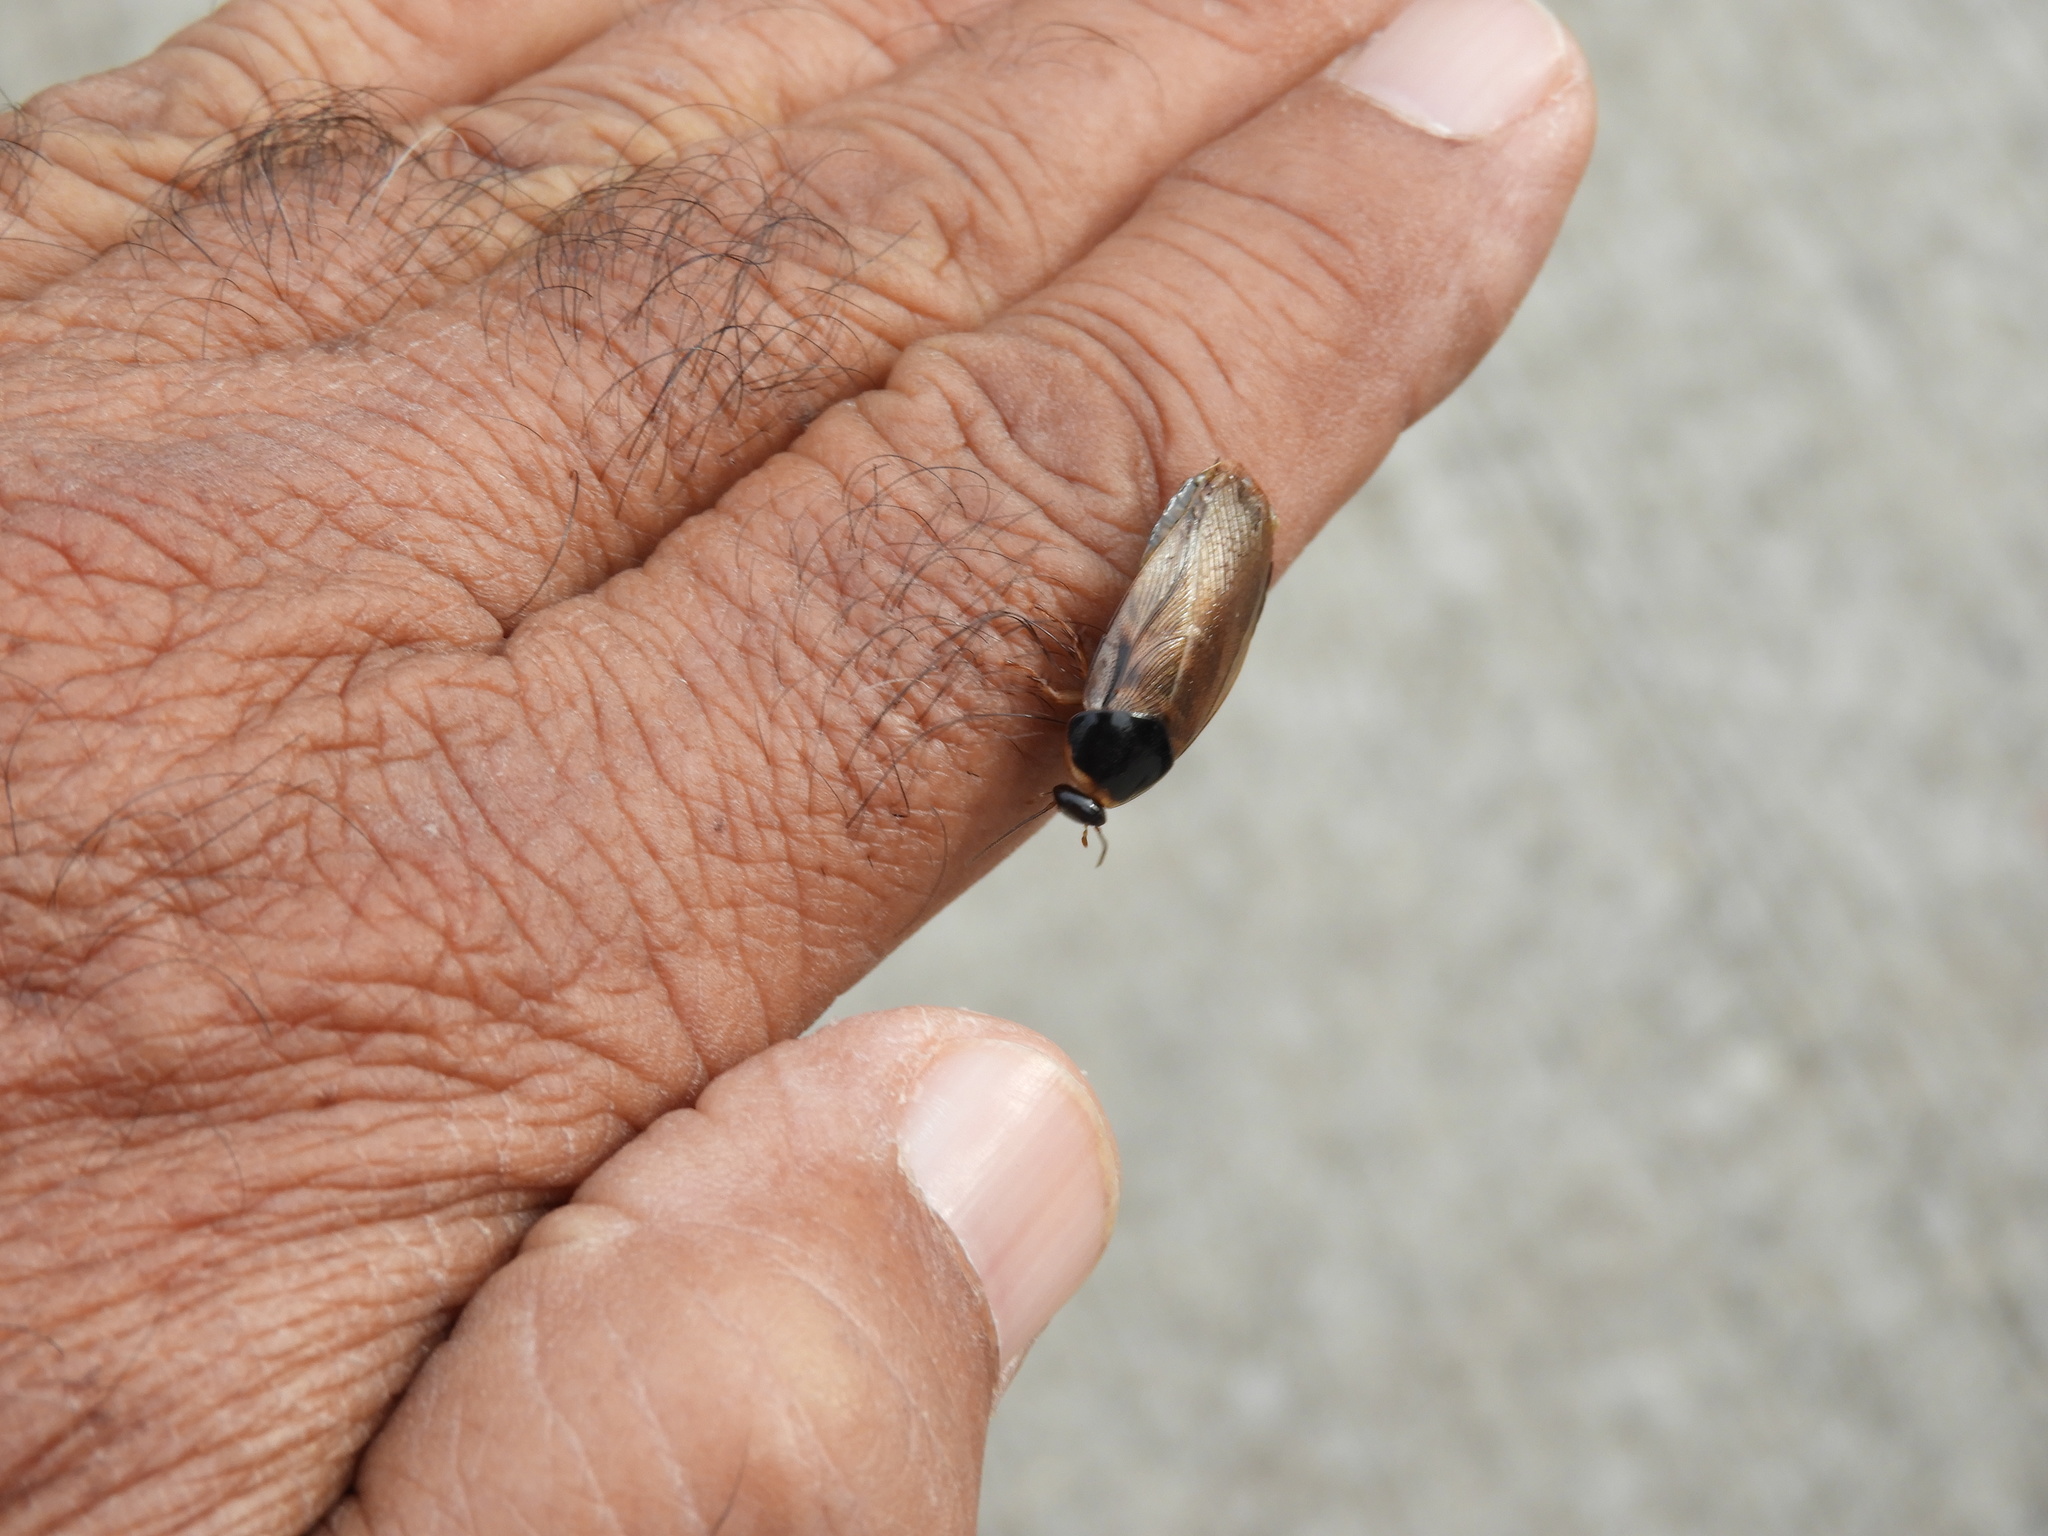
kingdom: Animalia
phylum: Arthropoda
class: Insecta
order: Blattodea
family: Blaberidae
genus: Pycnoscelus
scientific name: Pycnoscelus surinamensis
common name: Surinam cockroach
